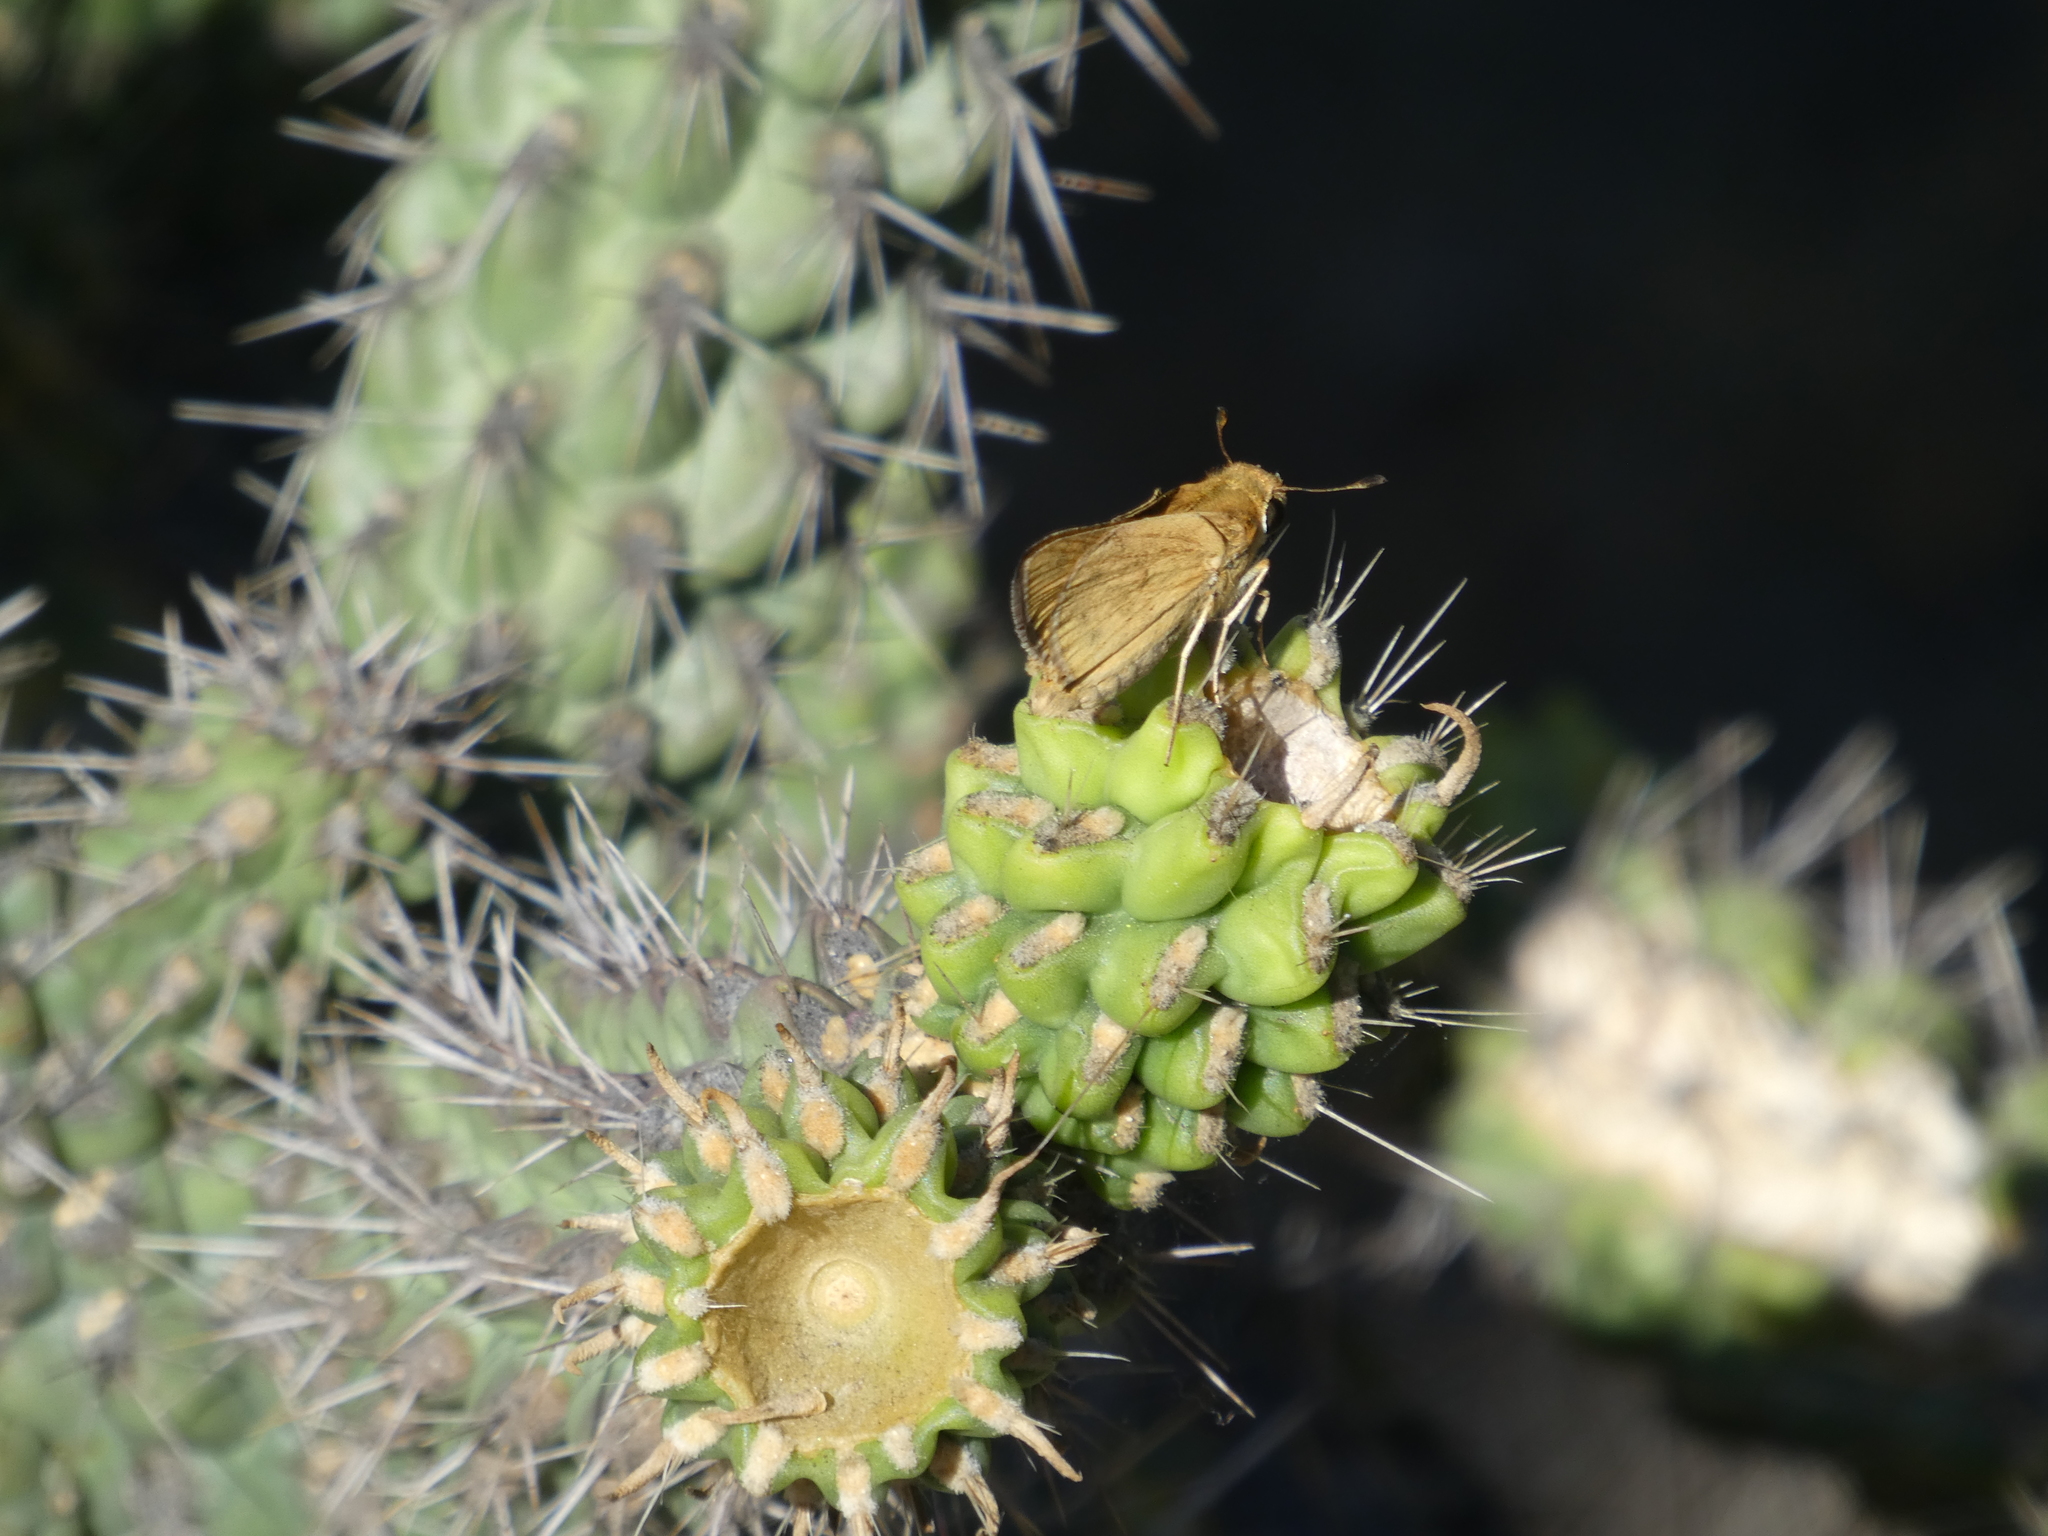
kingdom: Animalia
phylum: Arthropoda
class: Insecta
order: Lepidoptera
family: Hesperiidae
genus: Hylephila
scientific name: Hylephila phyleus
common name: Fiery skipper
